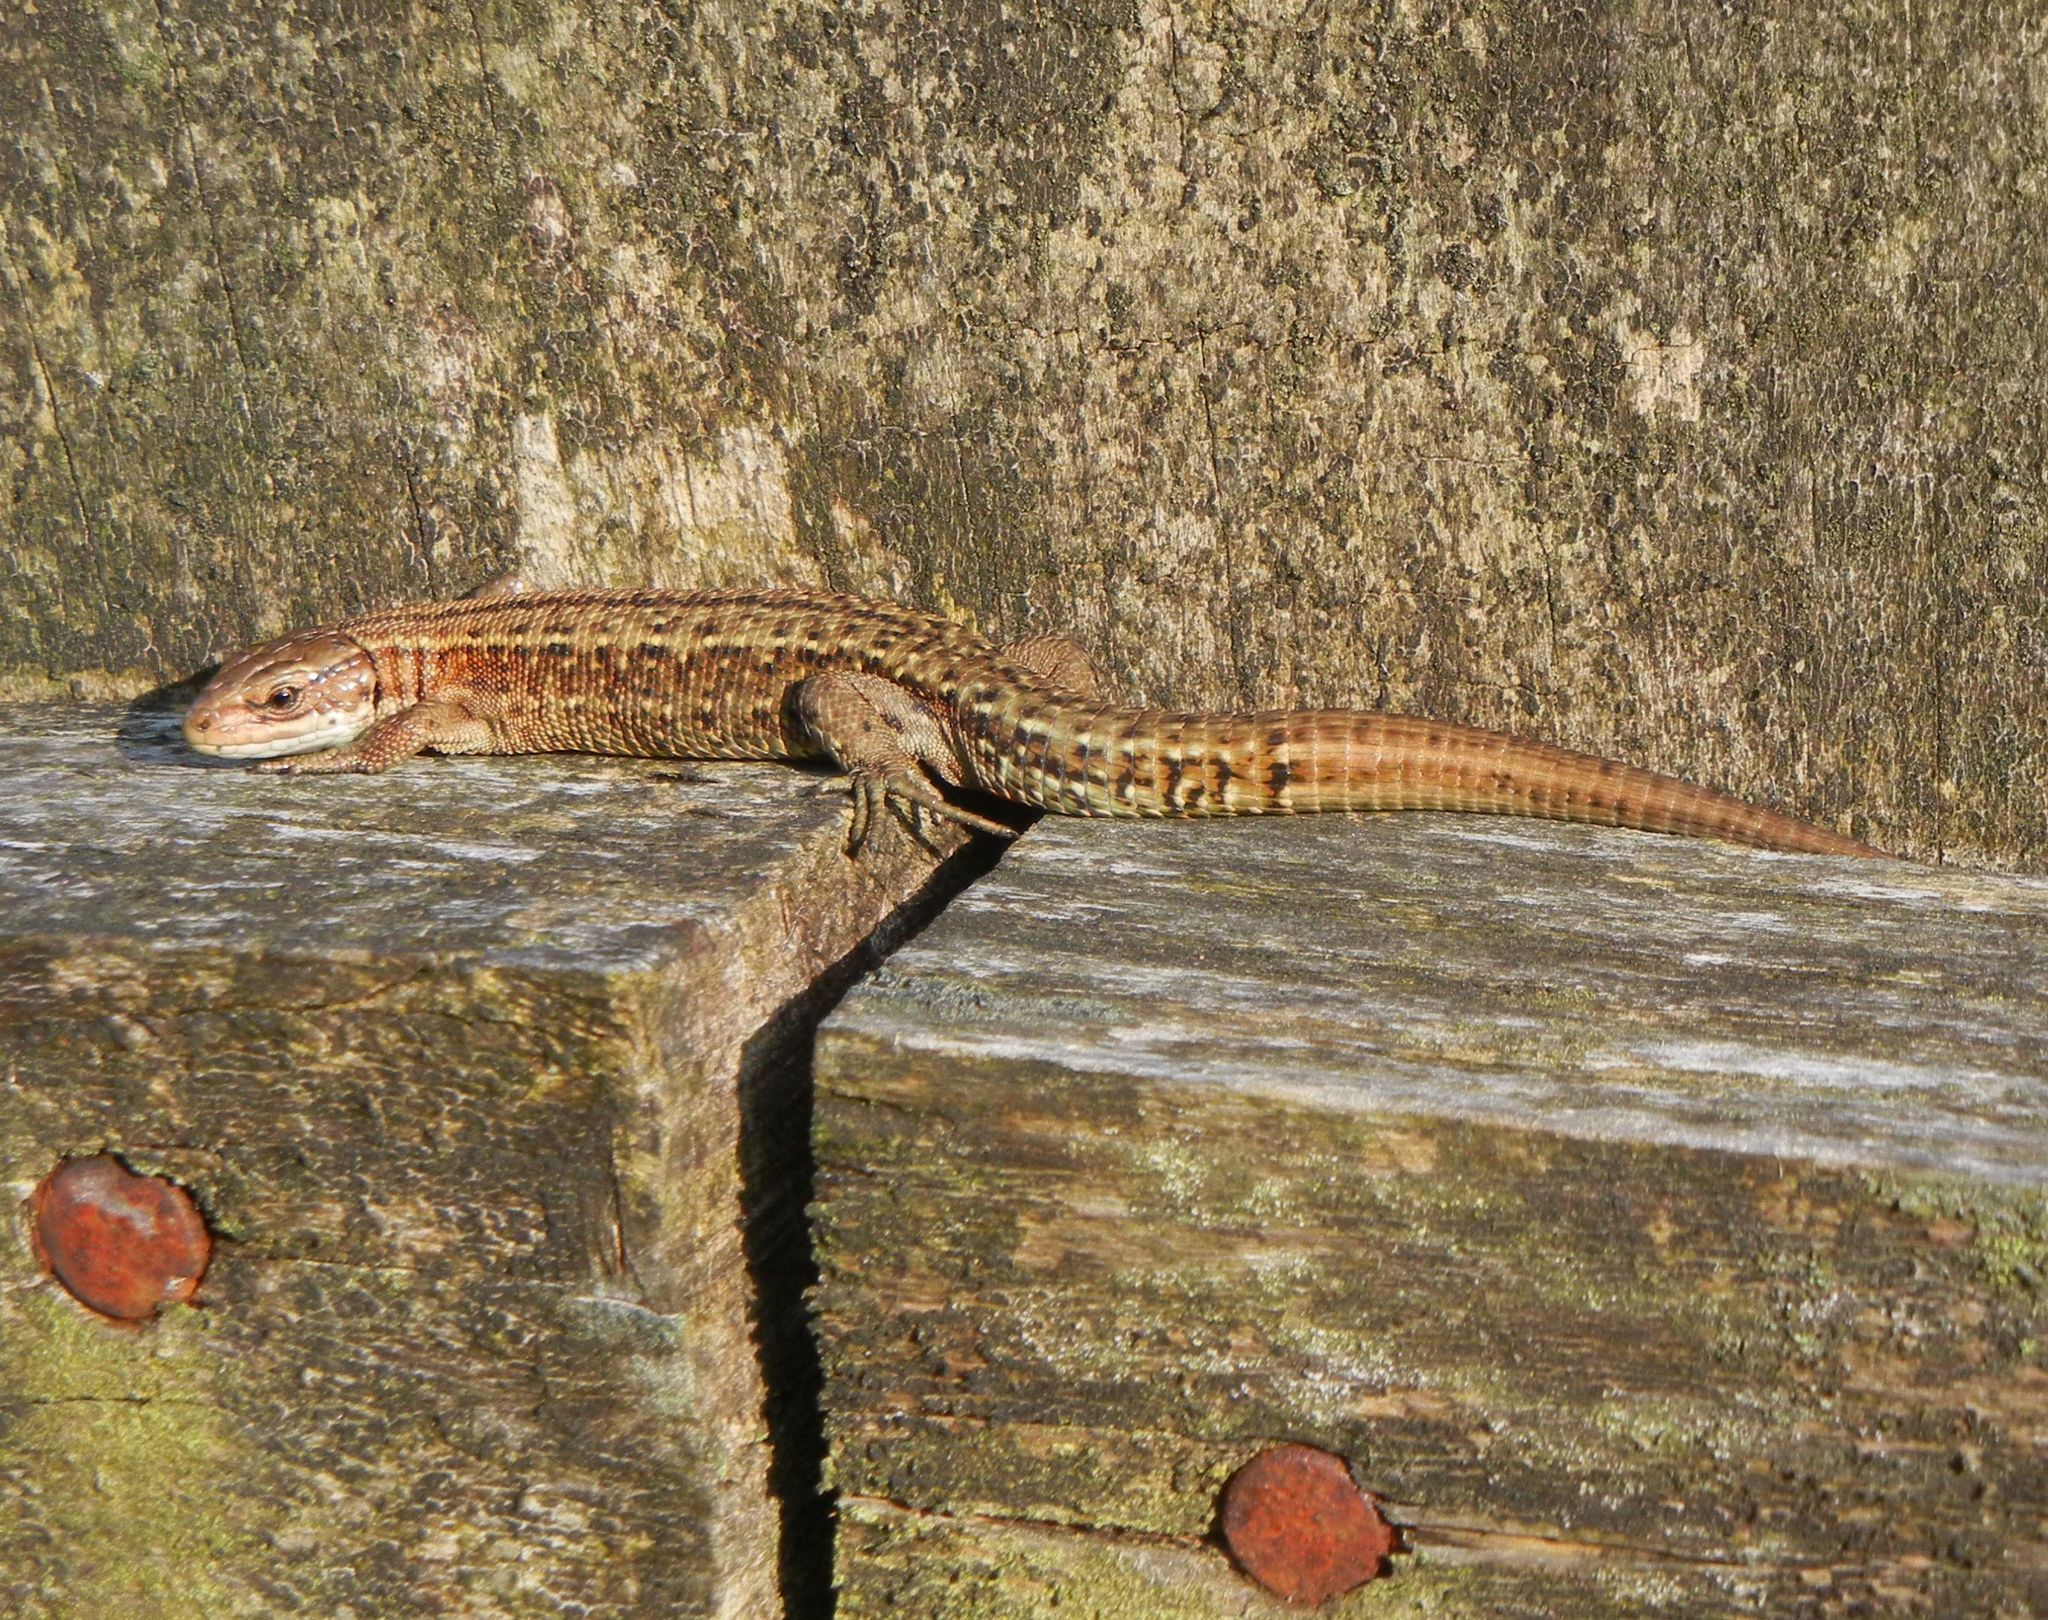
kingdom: Animalia
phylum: Chordata
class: Squamata
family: Lacertidae
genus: Zootoca
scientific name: Zootoca vivipara
